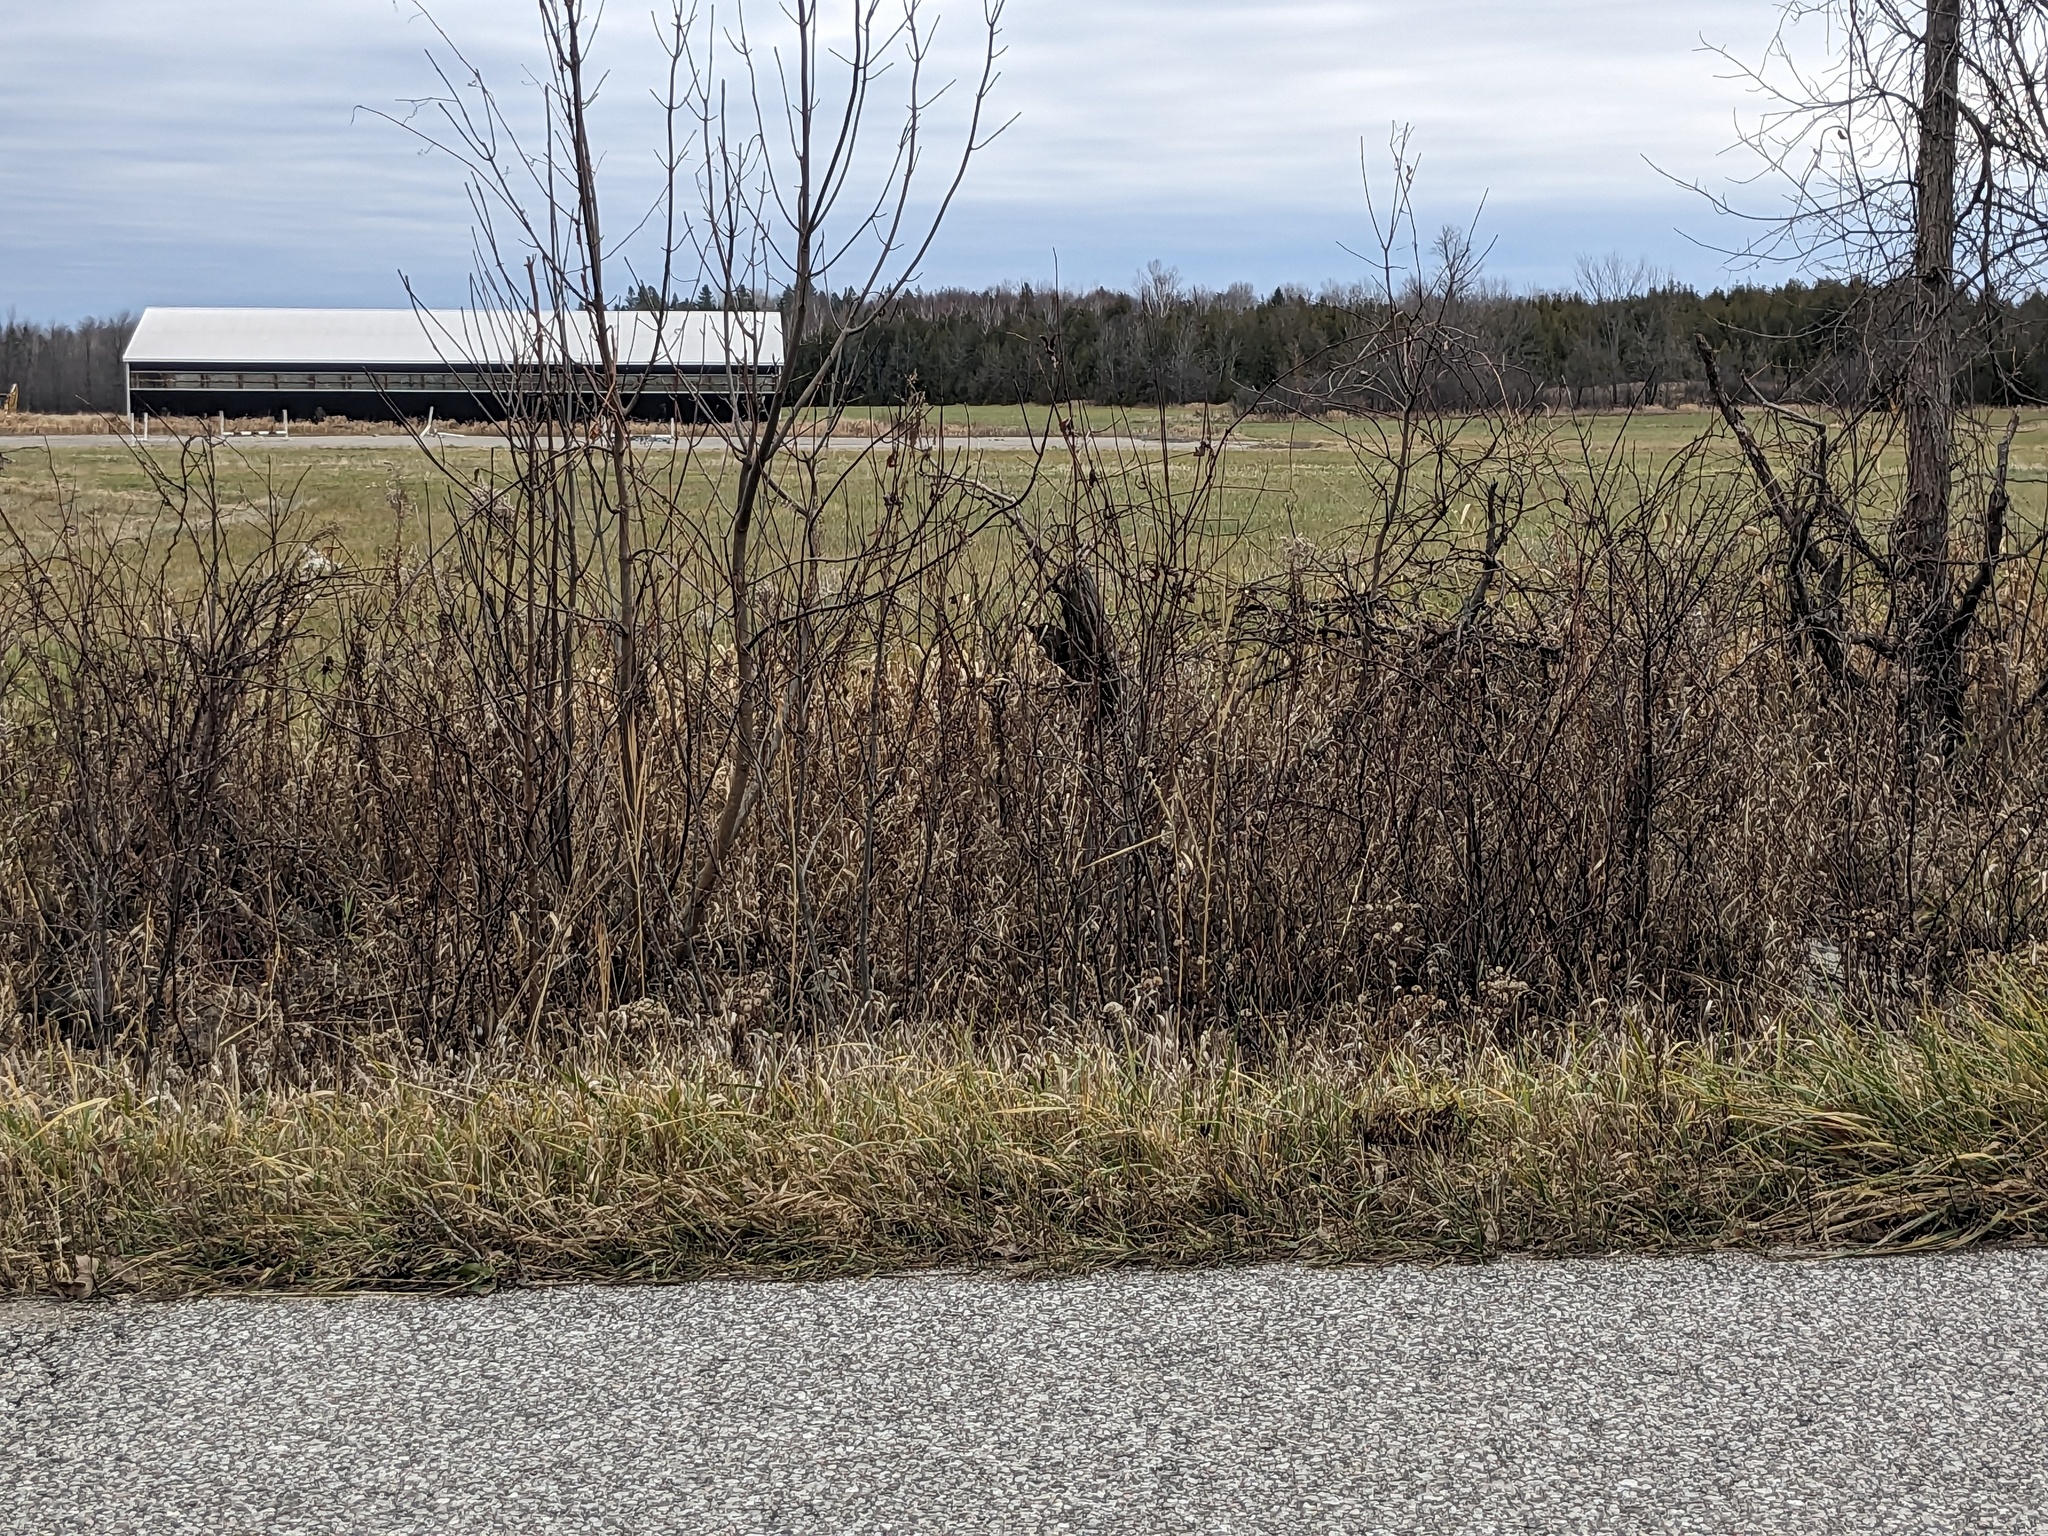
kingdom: Plantae
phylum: Tracheophyta
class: Liliopsida
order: Poales
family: Poaceae
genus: Phragmites
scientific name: Phragmites australis
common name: Common reed
